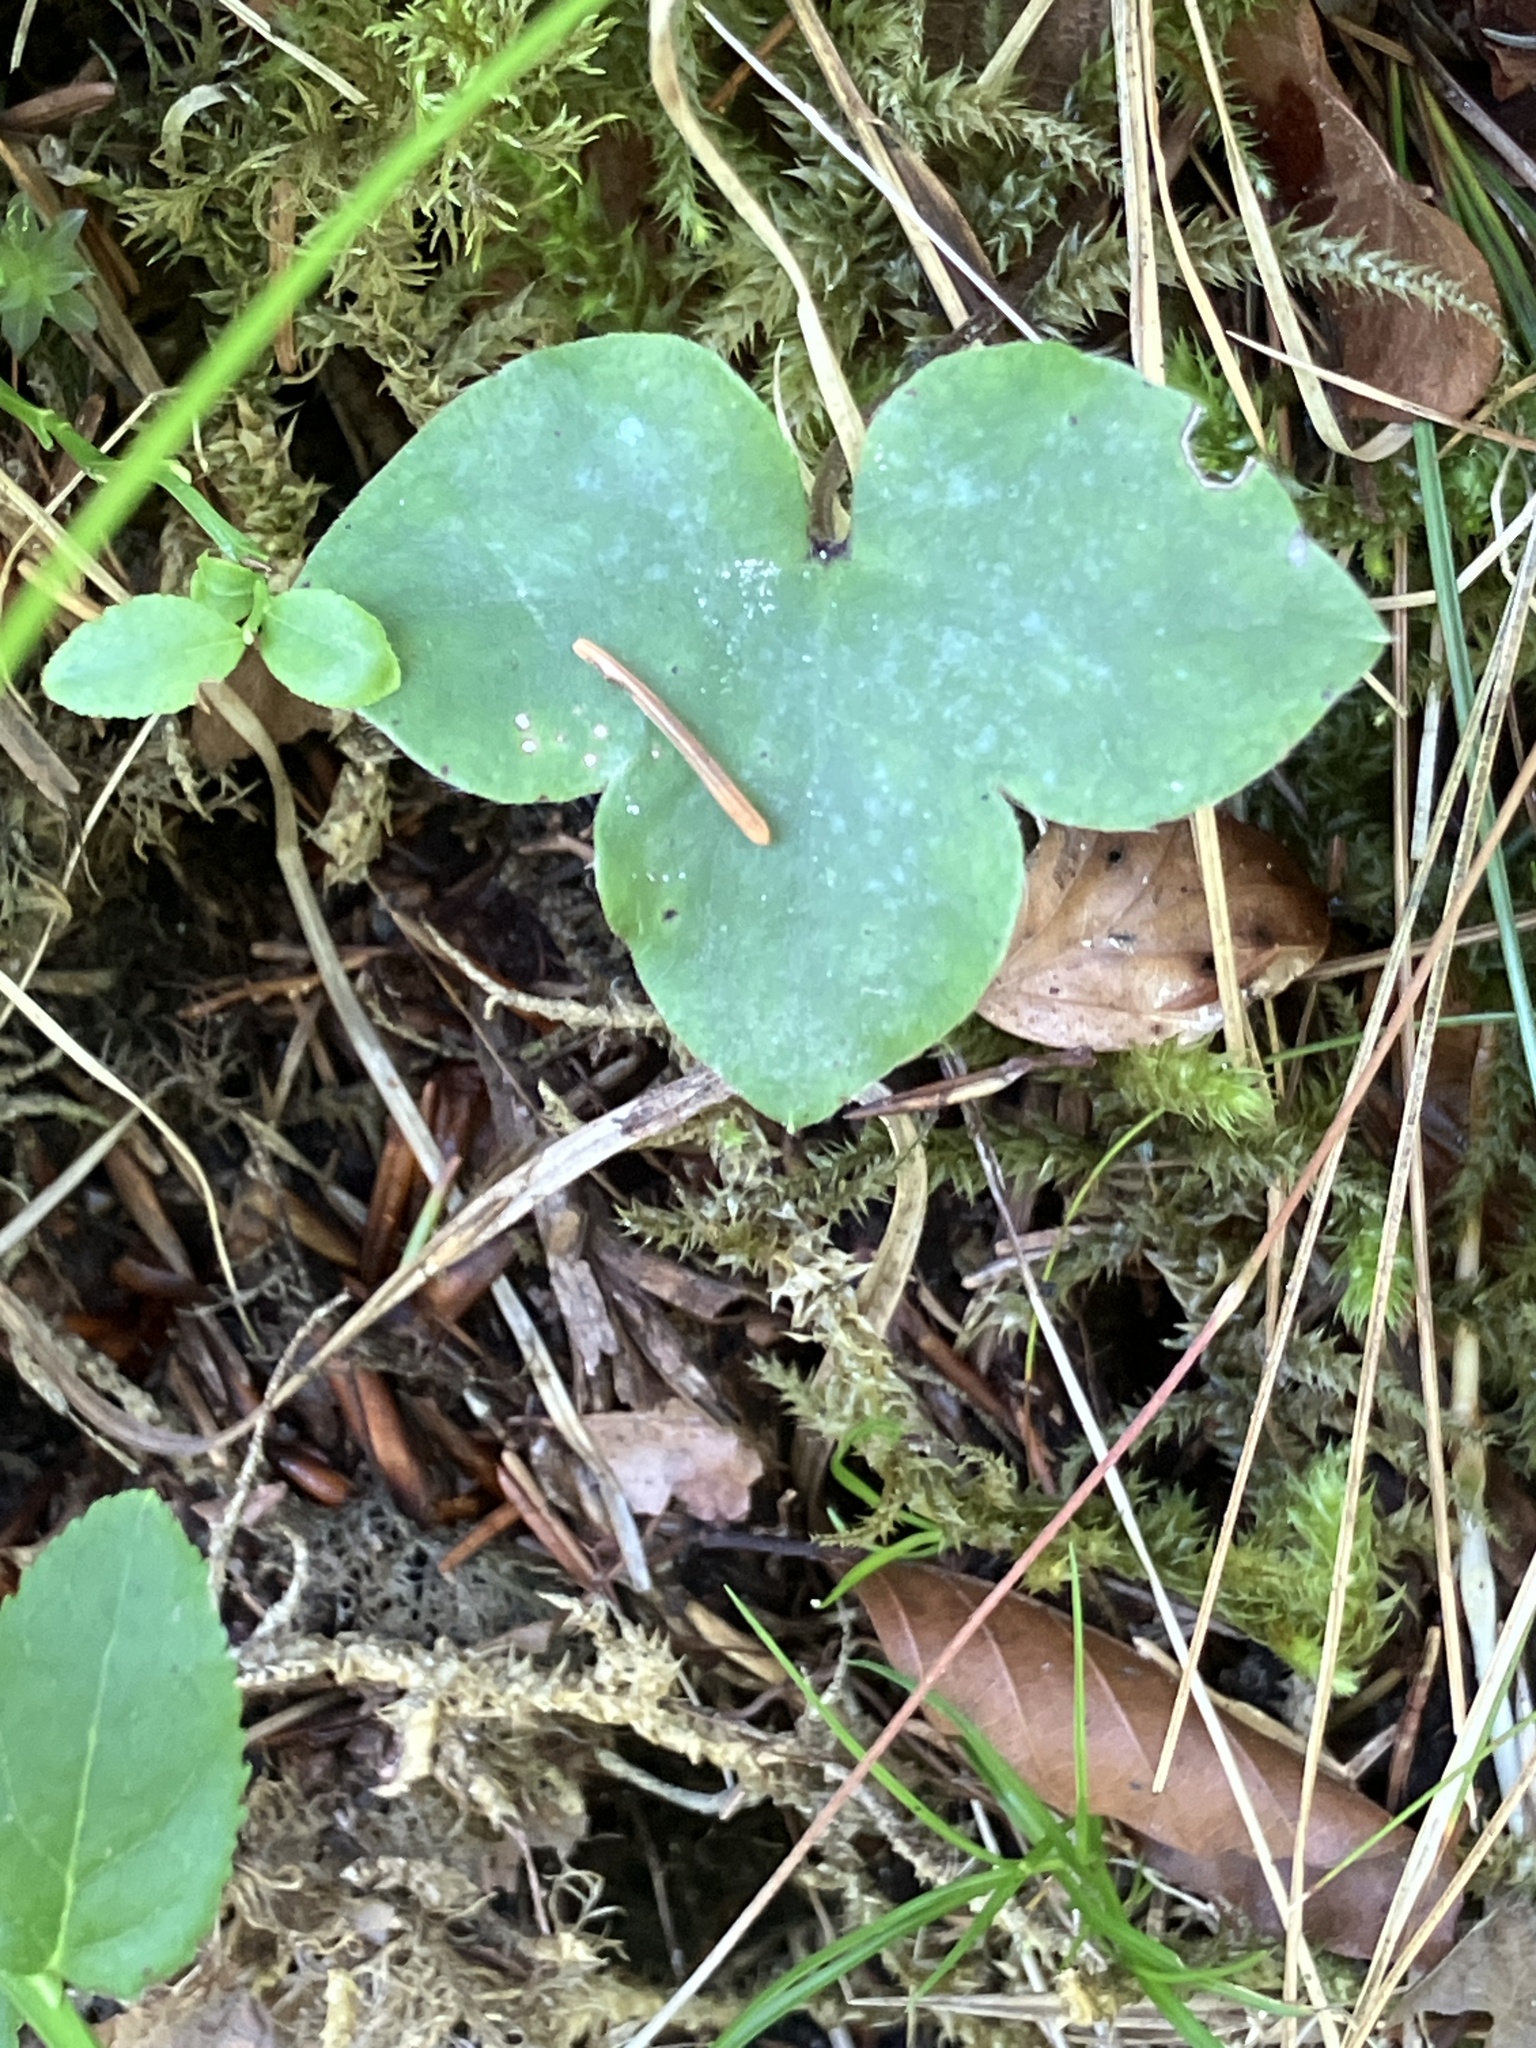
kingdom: Plantae
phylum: Tracheophyta
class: Magnoliopsida
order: Ranunculales
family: Ranunculaceae
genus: Hepatica
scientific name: Hepatica nobilis
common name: Liverleaf
